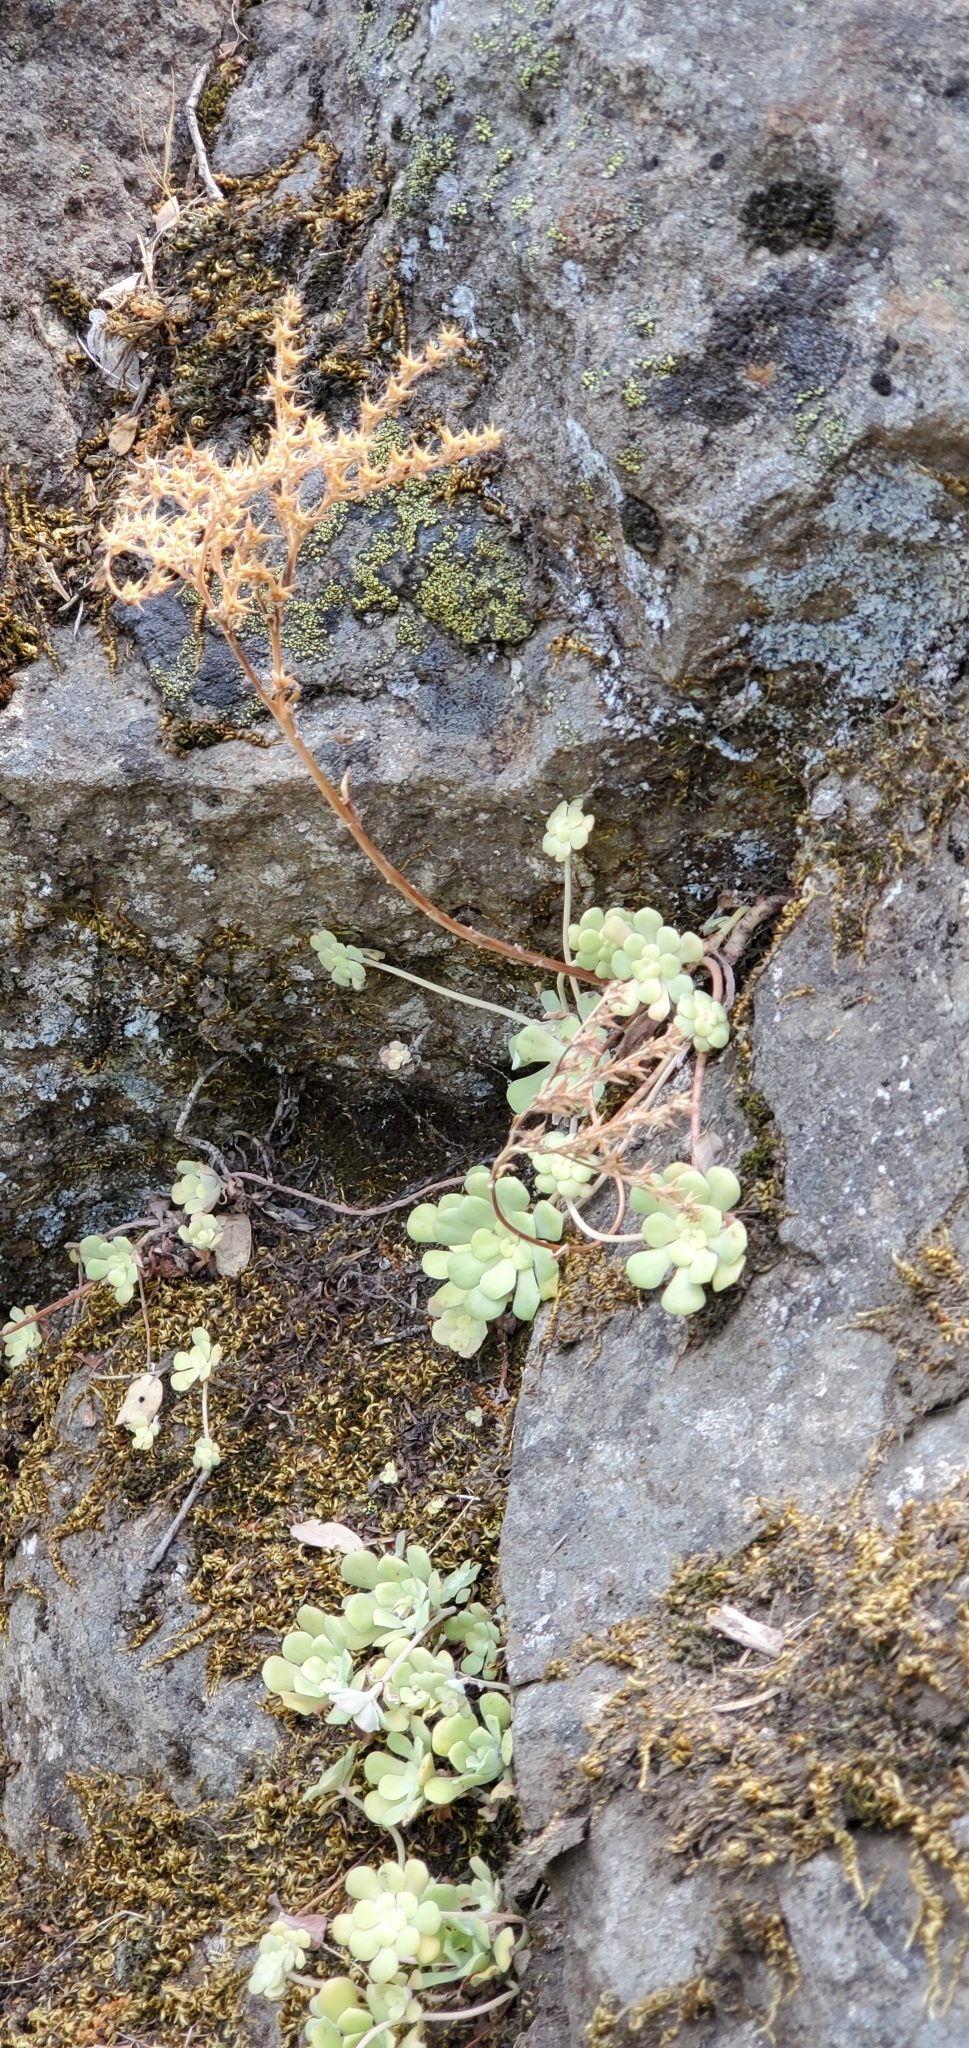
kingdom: Plantae
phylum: Tracheophyta
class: Magnoliopsida
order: Saxifragales
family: Crassulaceae
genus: Sedum
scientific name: Sedum spathulifolium
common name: Colorado stonecrop
